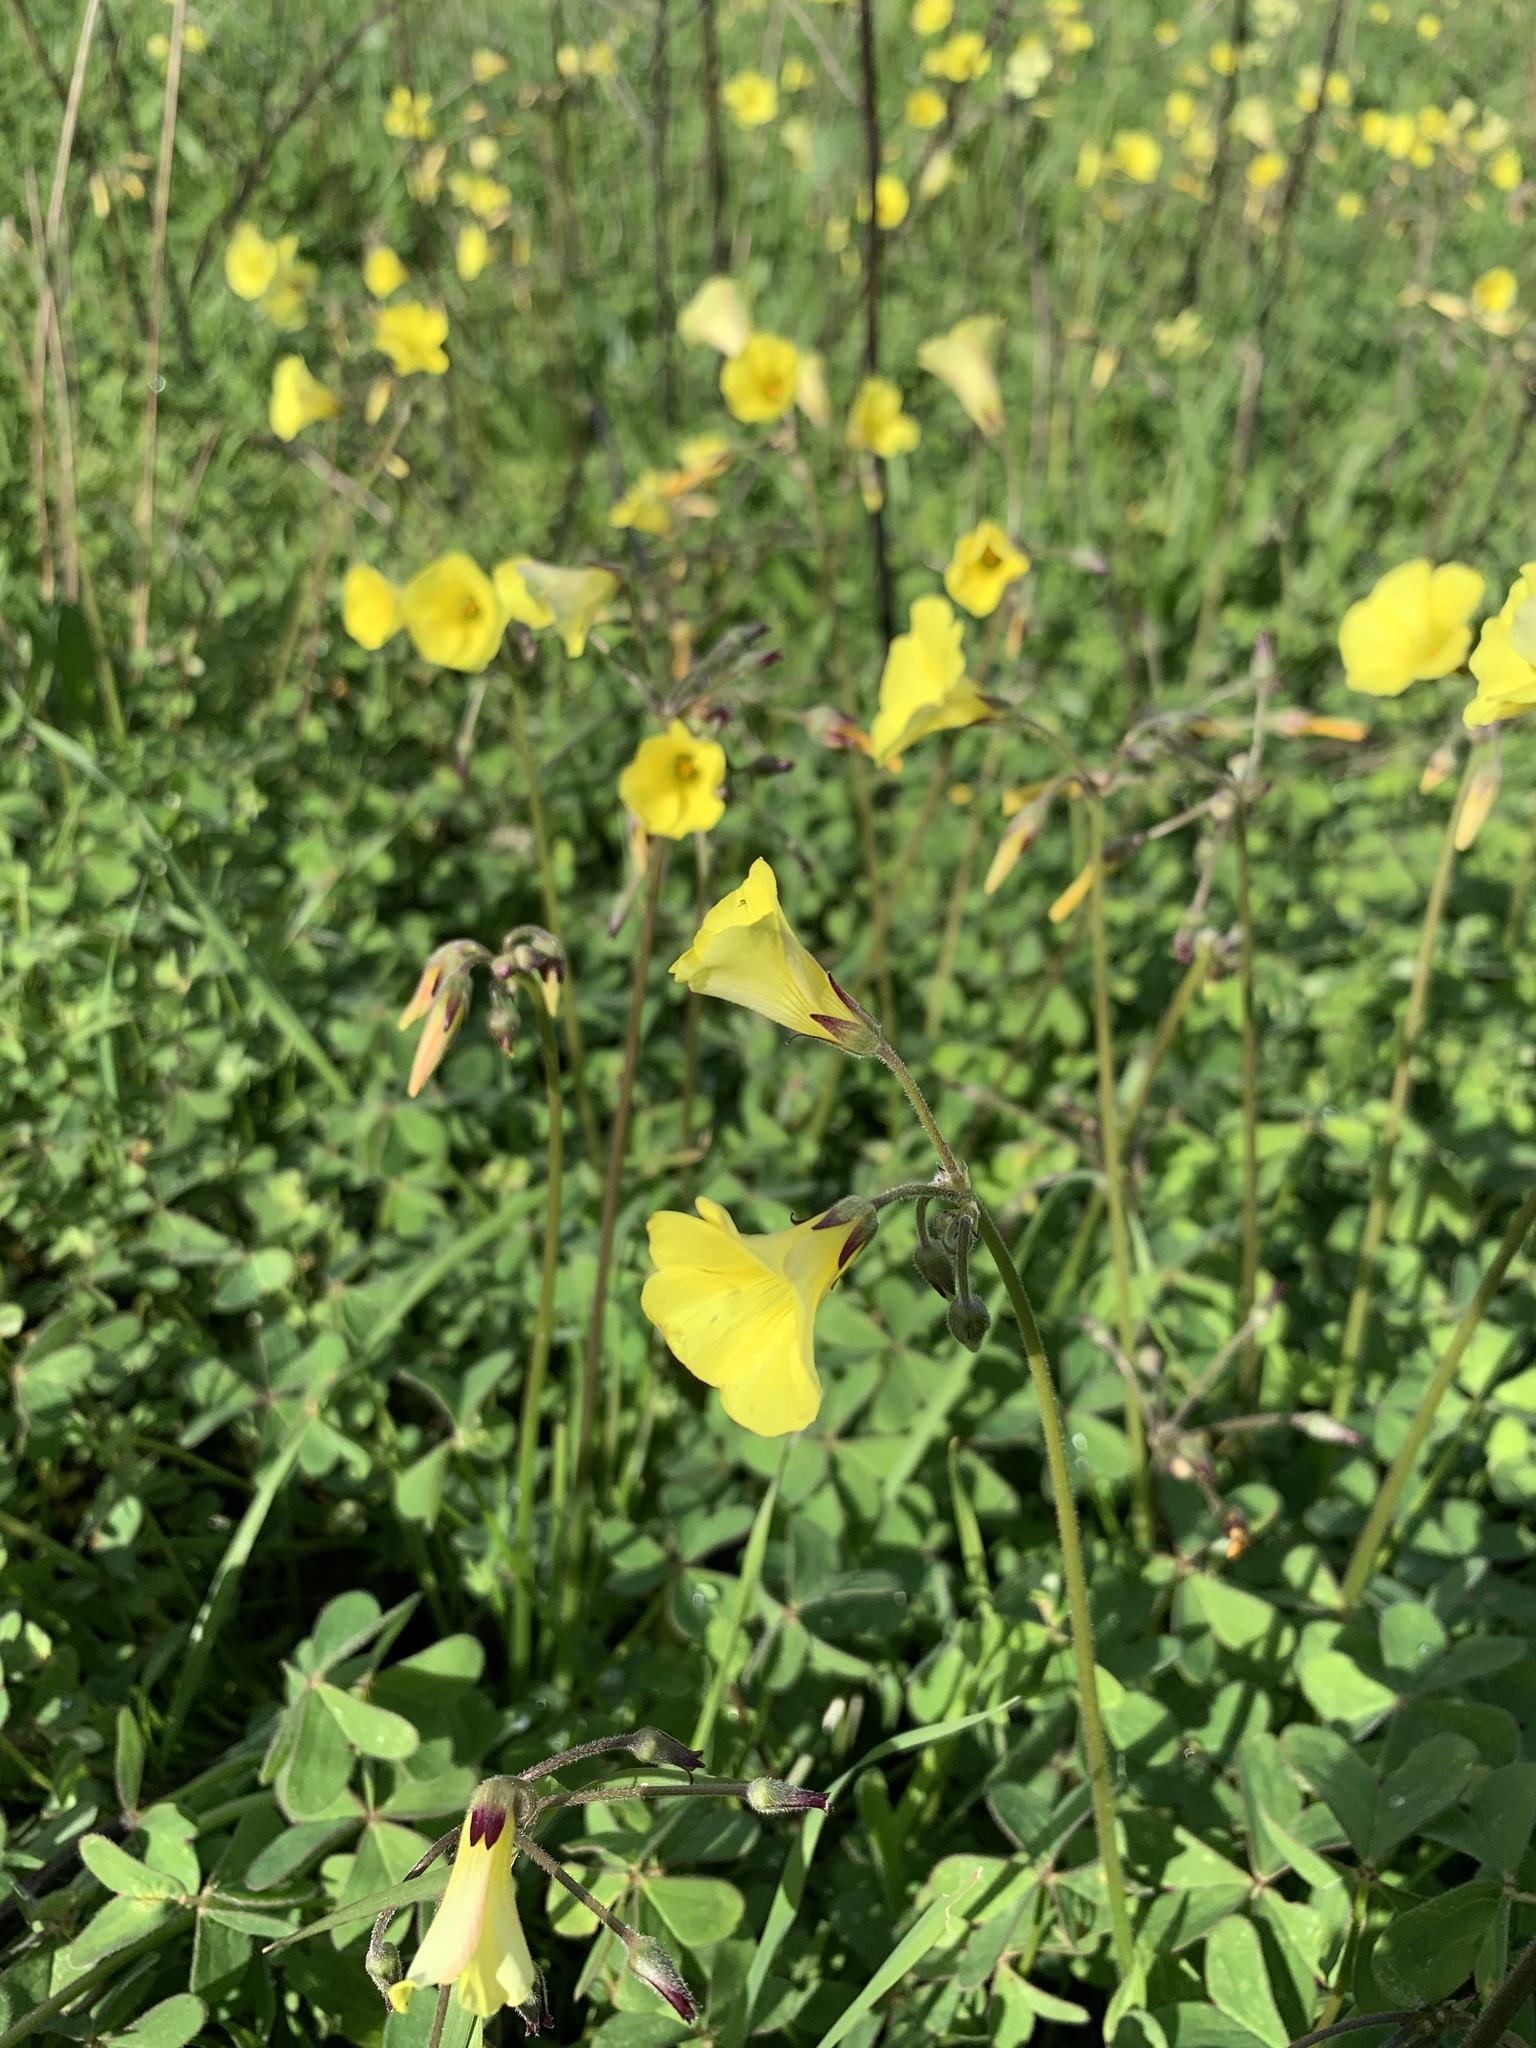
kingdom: Plantae
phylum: Tracheophyta
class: Magnoliopsida
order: Oxalidales
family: Oxalidaceae
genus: Oxalis
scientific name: Oxalis pes-caprae
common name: Bermuda-buttercup
